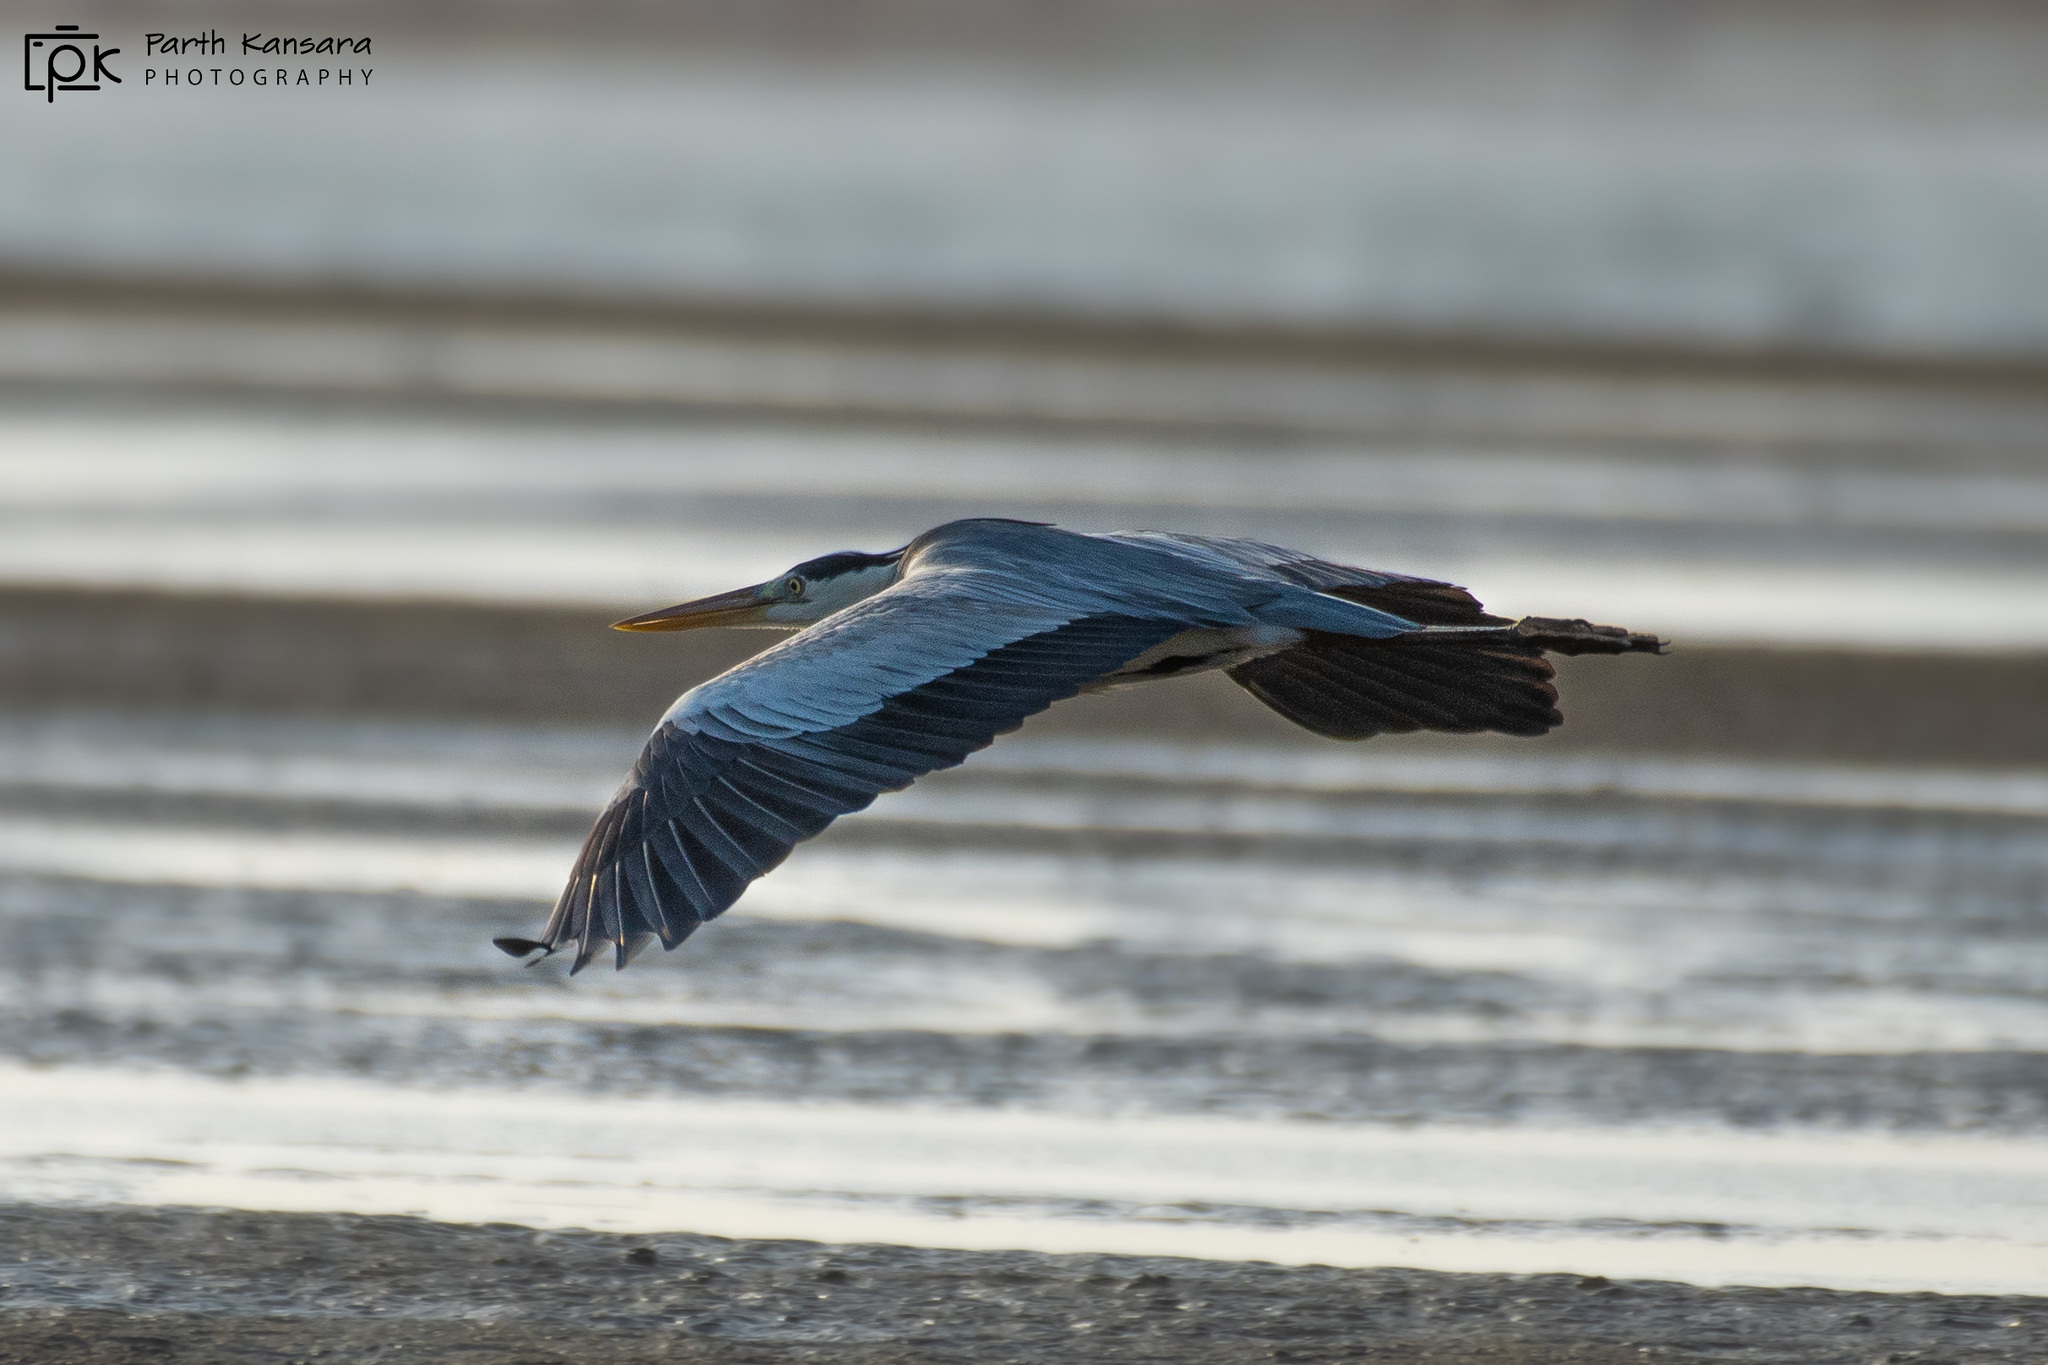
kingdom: Animalia
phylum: Chordata
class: Aves
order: Pelecaniformes
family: Ardeidae
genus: Ardea
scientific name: Ardea cinerea
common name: Grey heron
